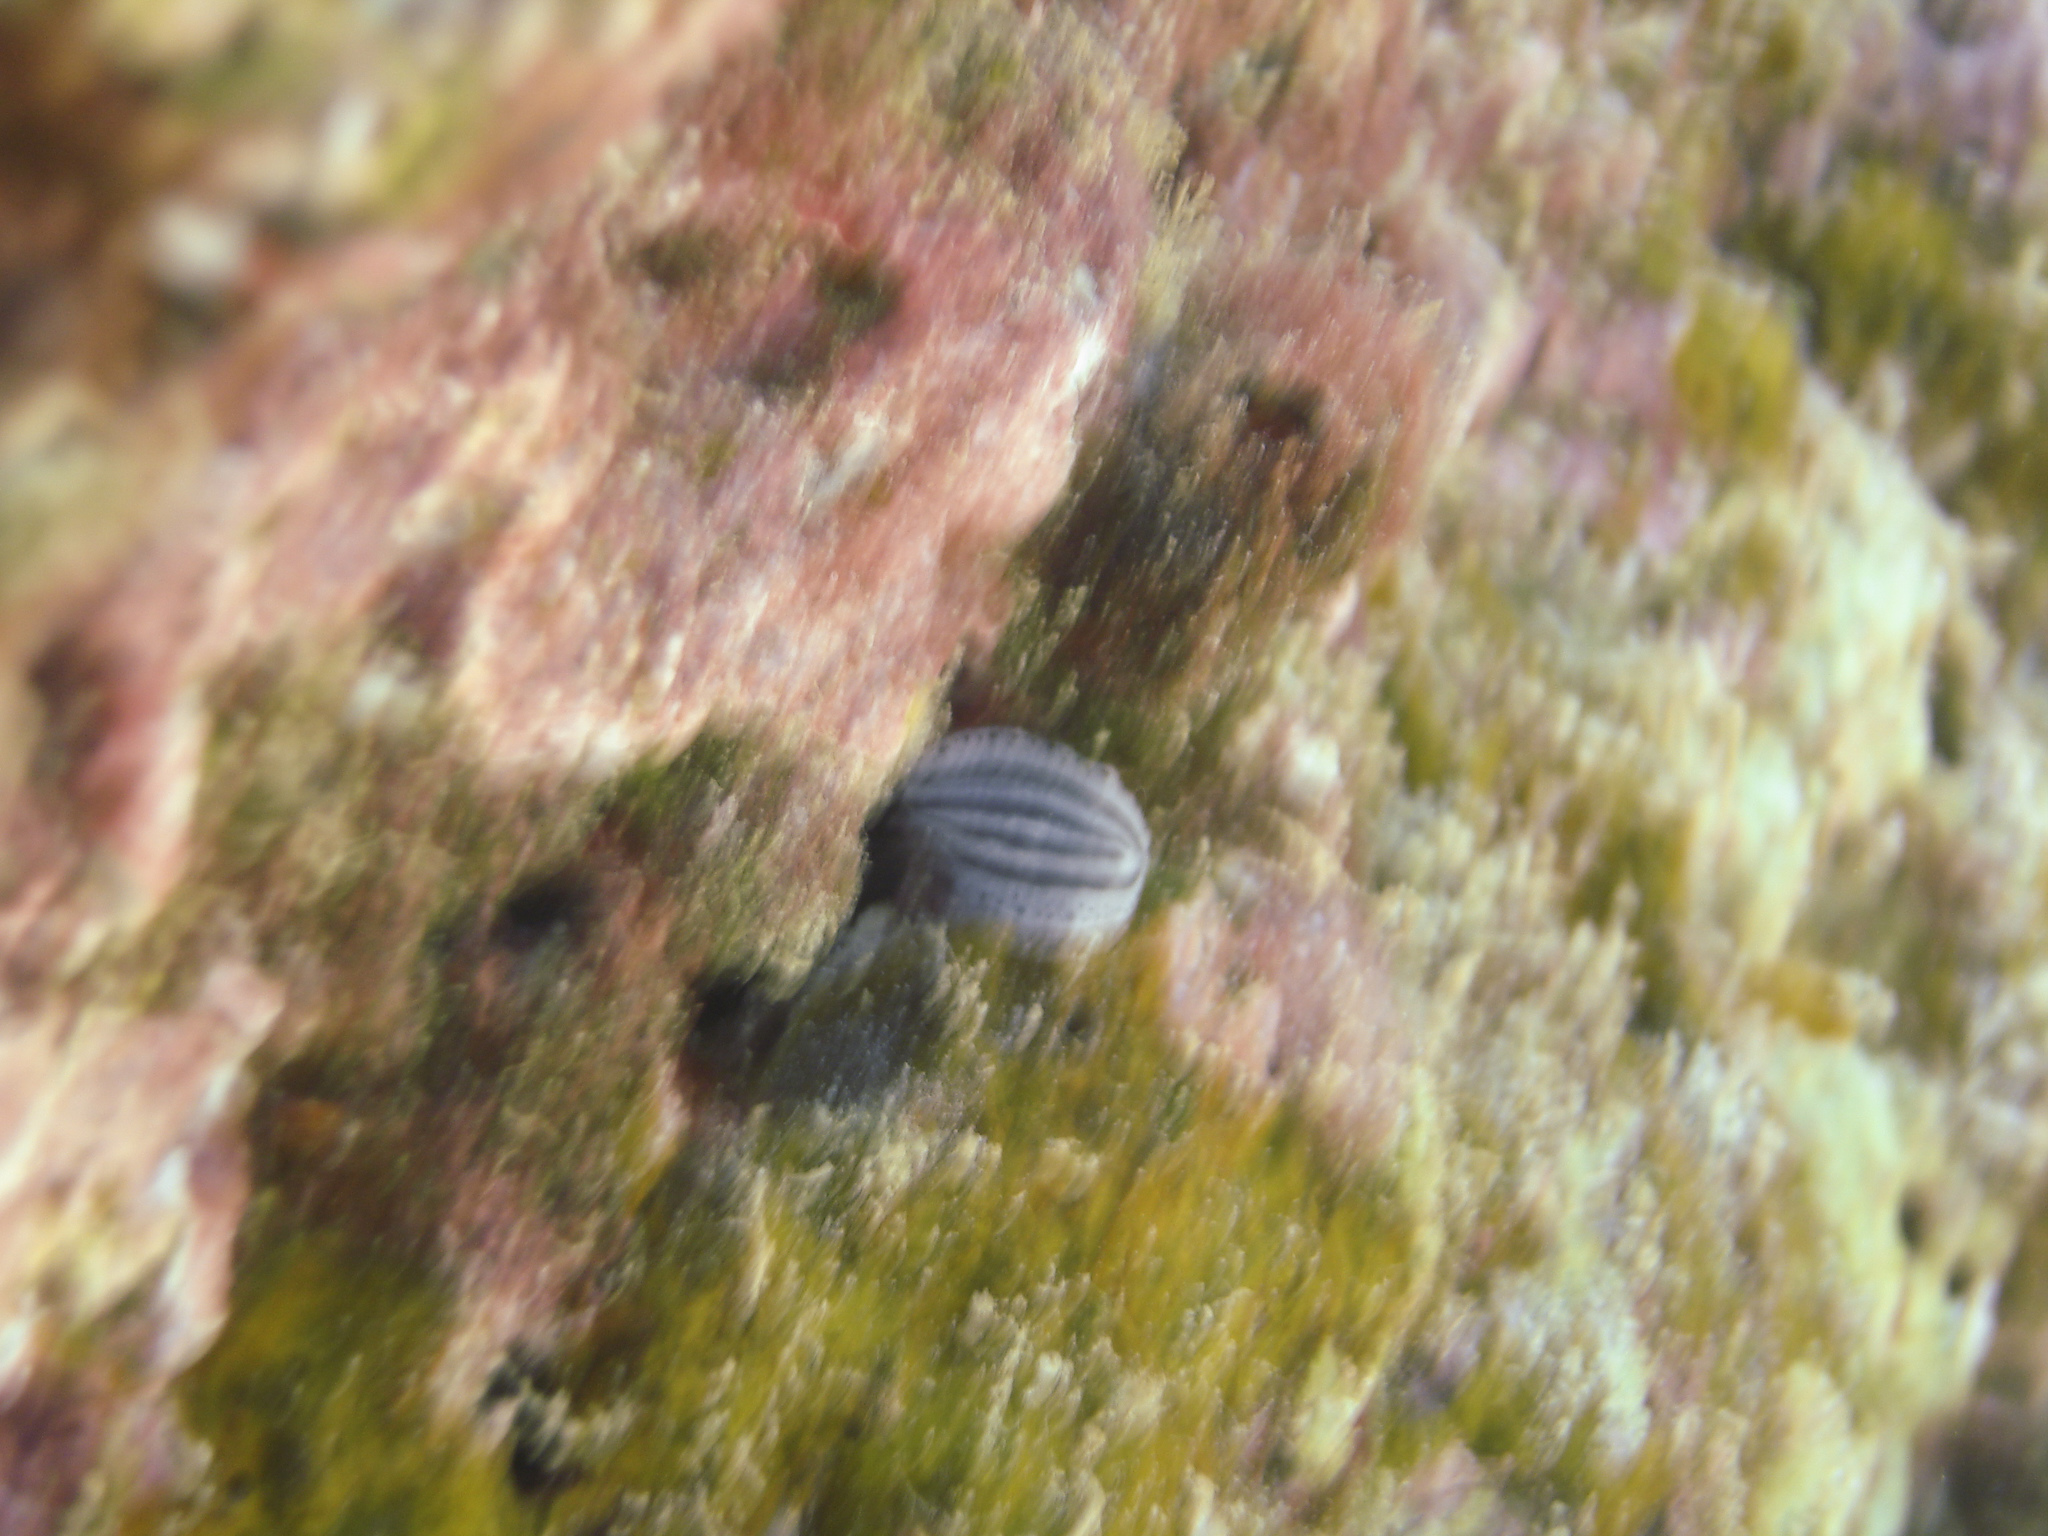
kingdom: Animalia
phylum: Mollusca
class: Gastropoda
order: Nudibranchia
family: Phyllidiidae
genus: Phyllidiopsis
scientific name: Phyllidiopsis xishaensis
